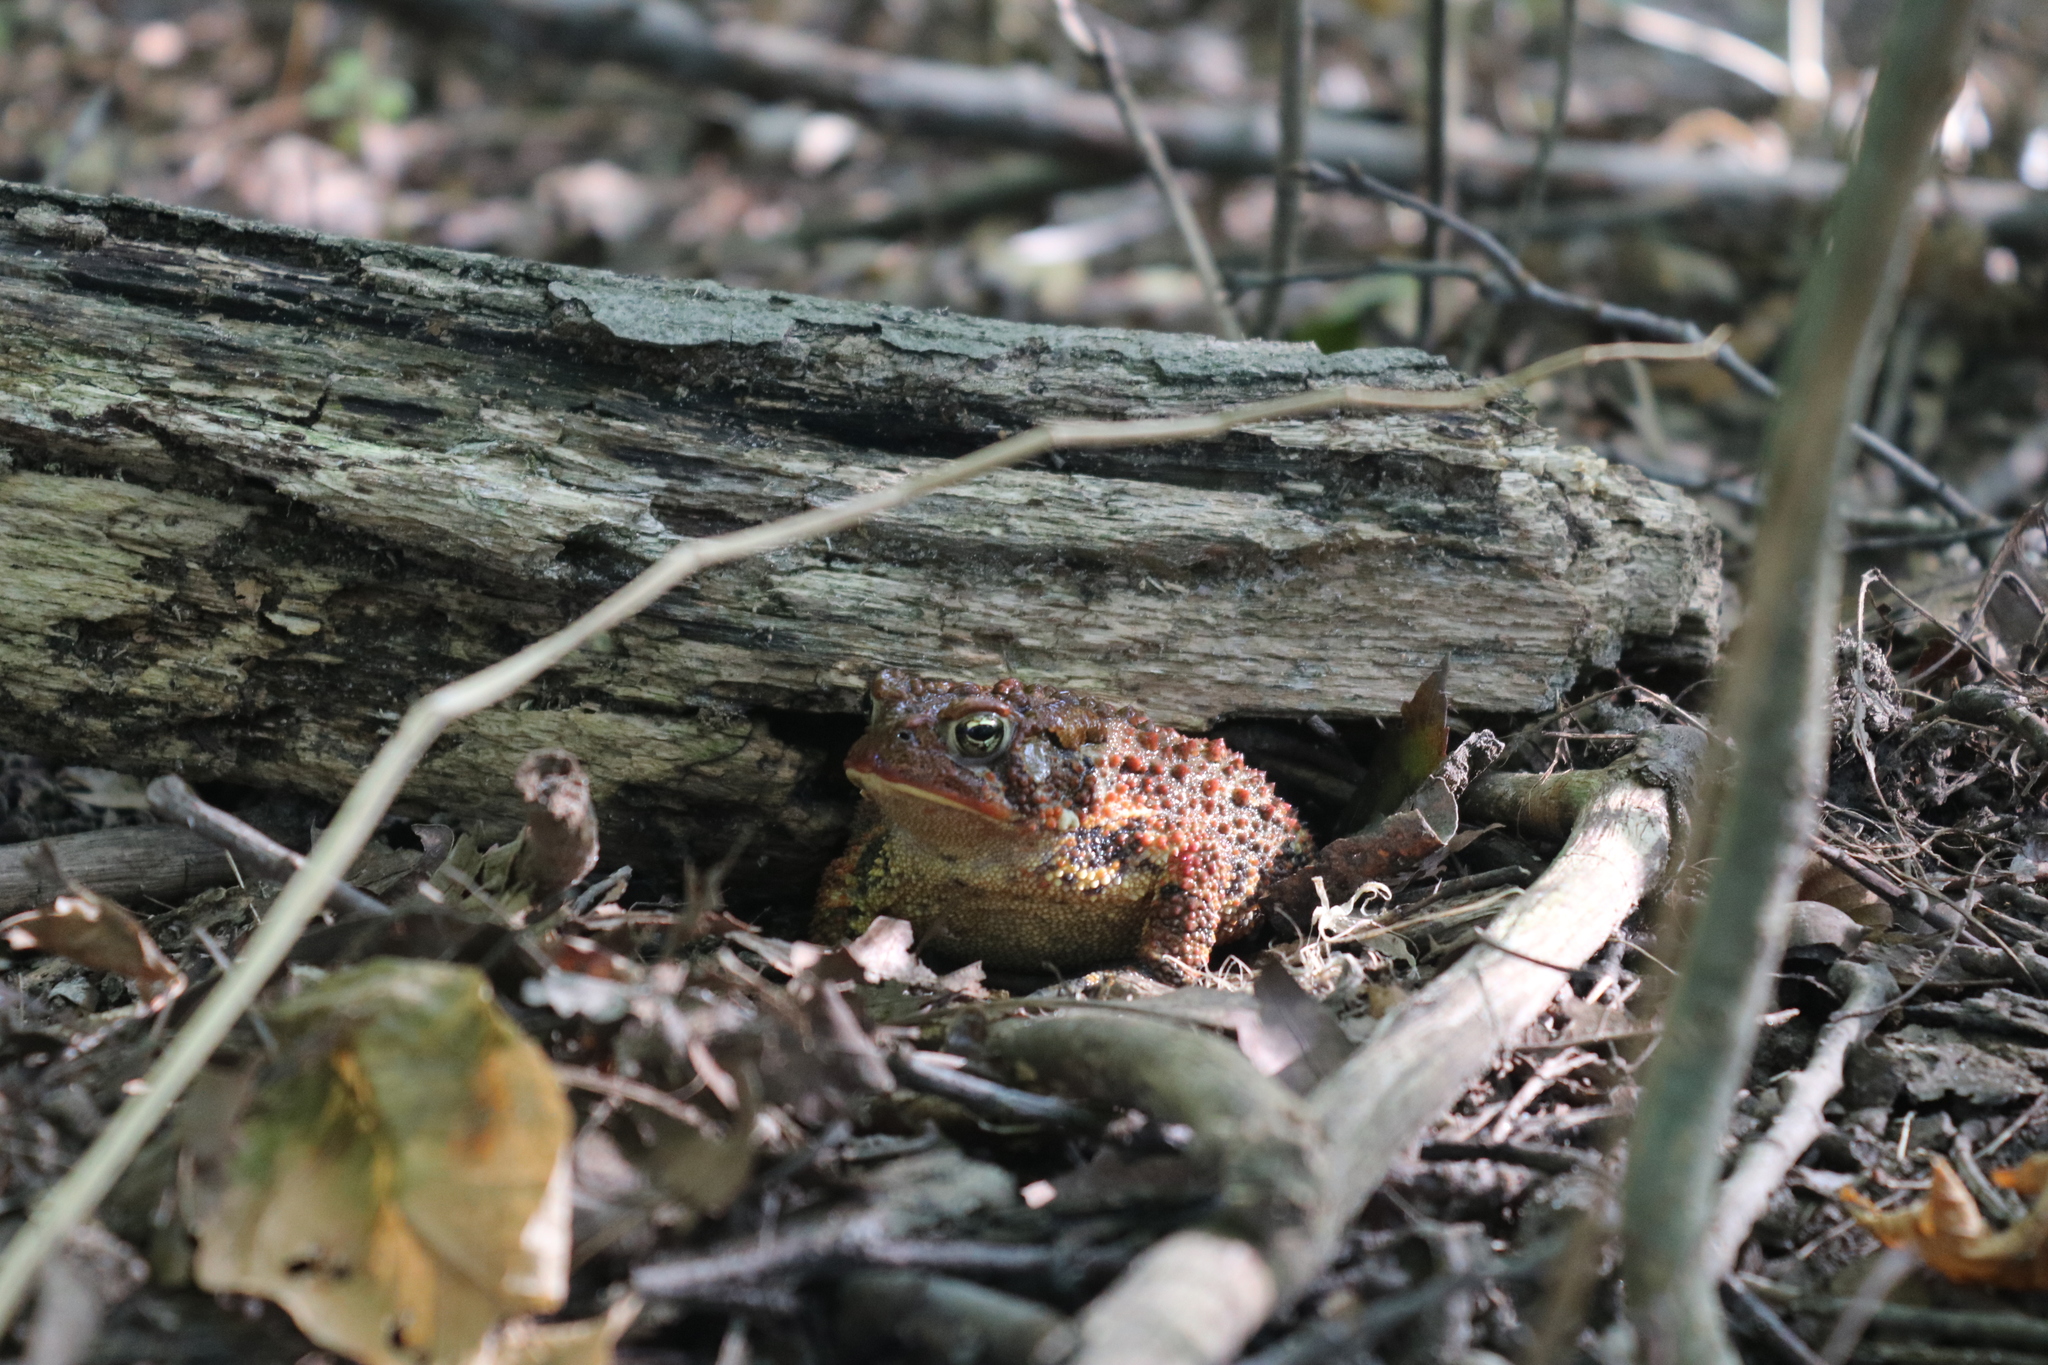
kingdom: Animalia
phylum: Chordata
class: Amphibia
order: Anura
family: Bufonidae
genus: Anaxyrus
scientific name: Anaxyrus americanus
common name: American toad
